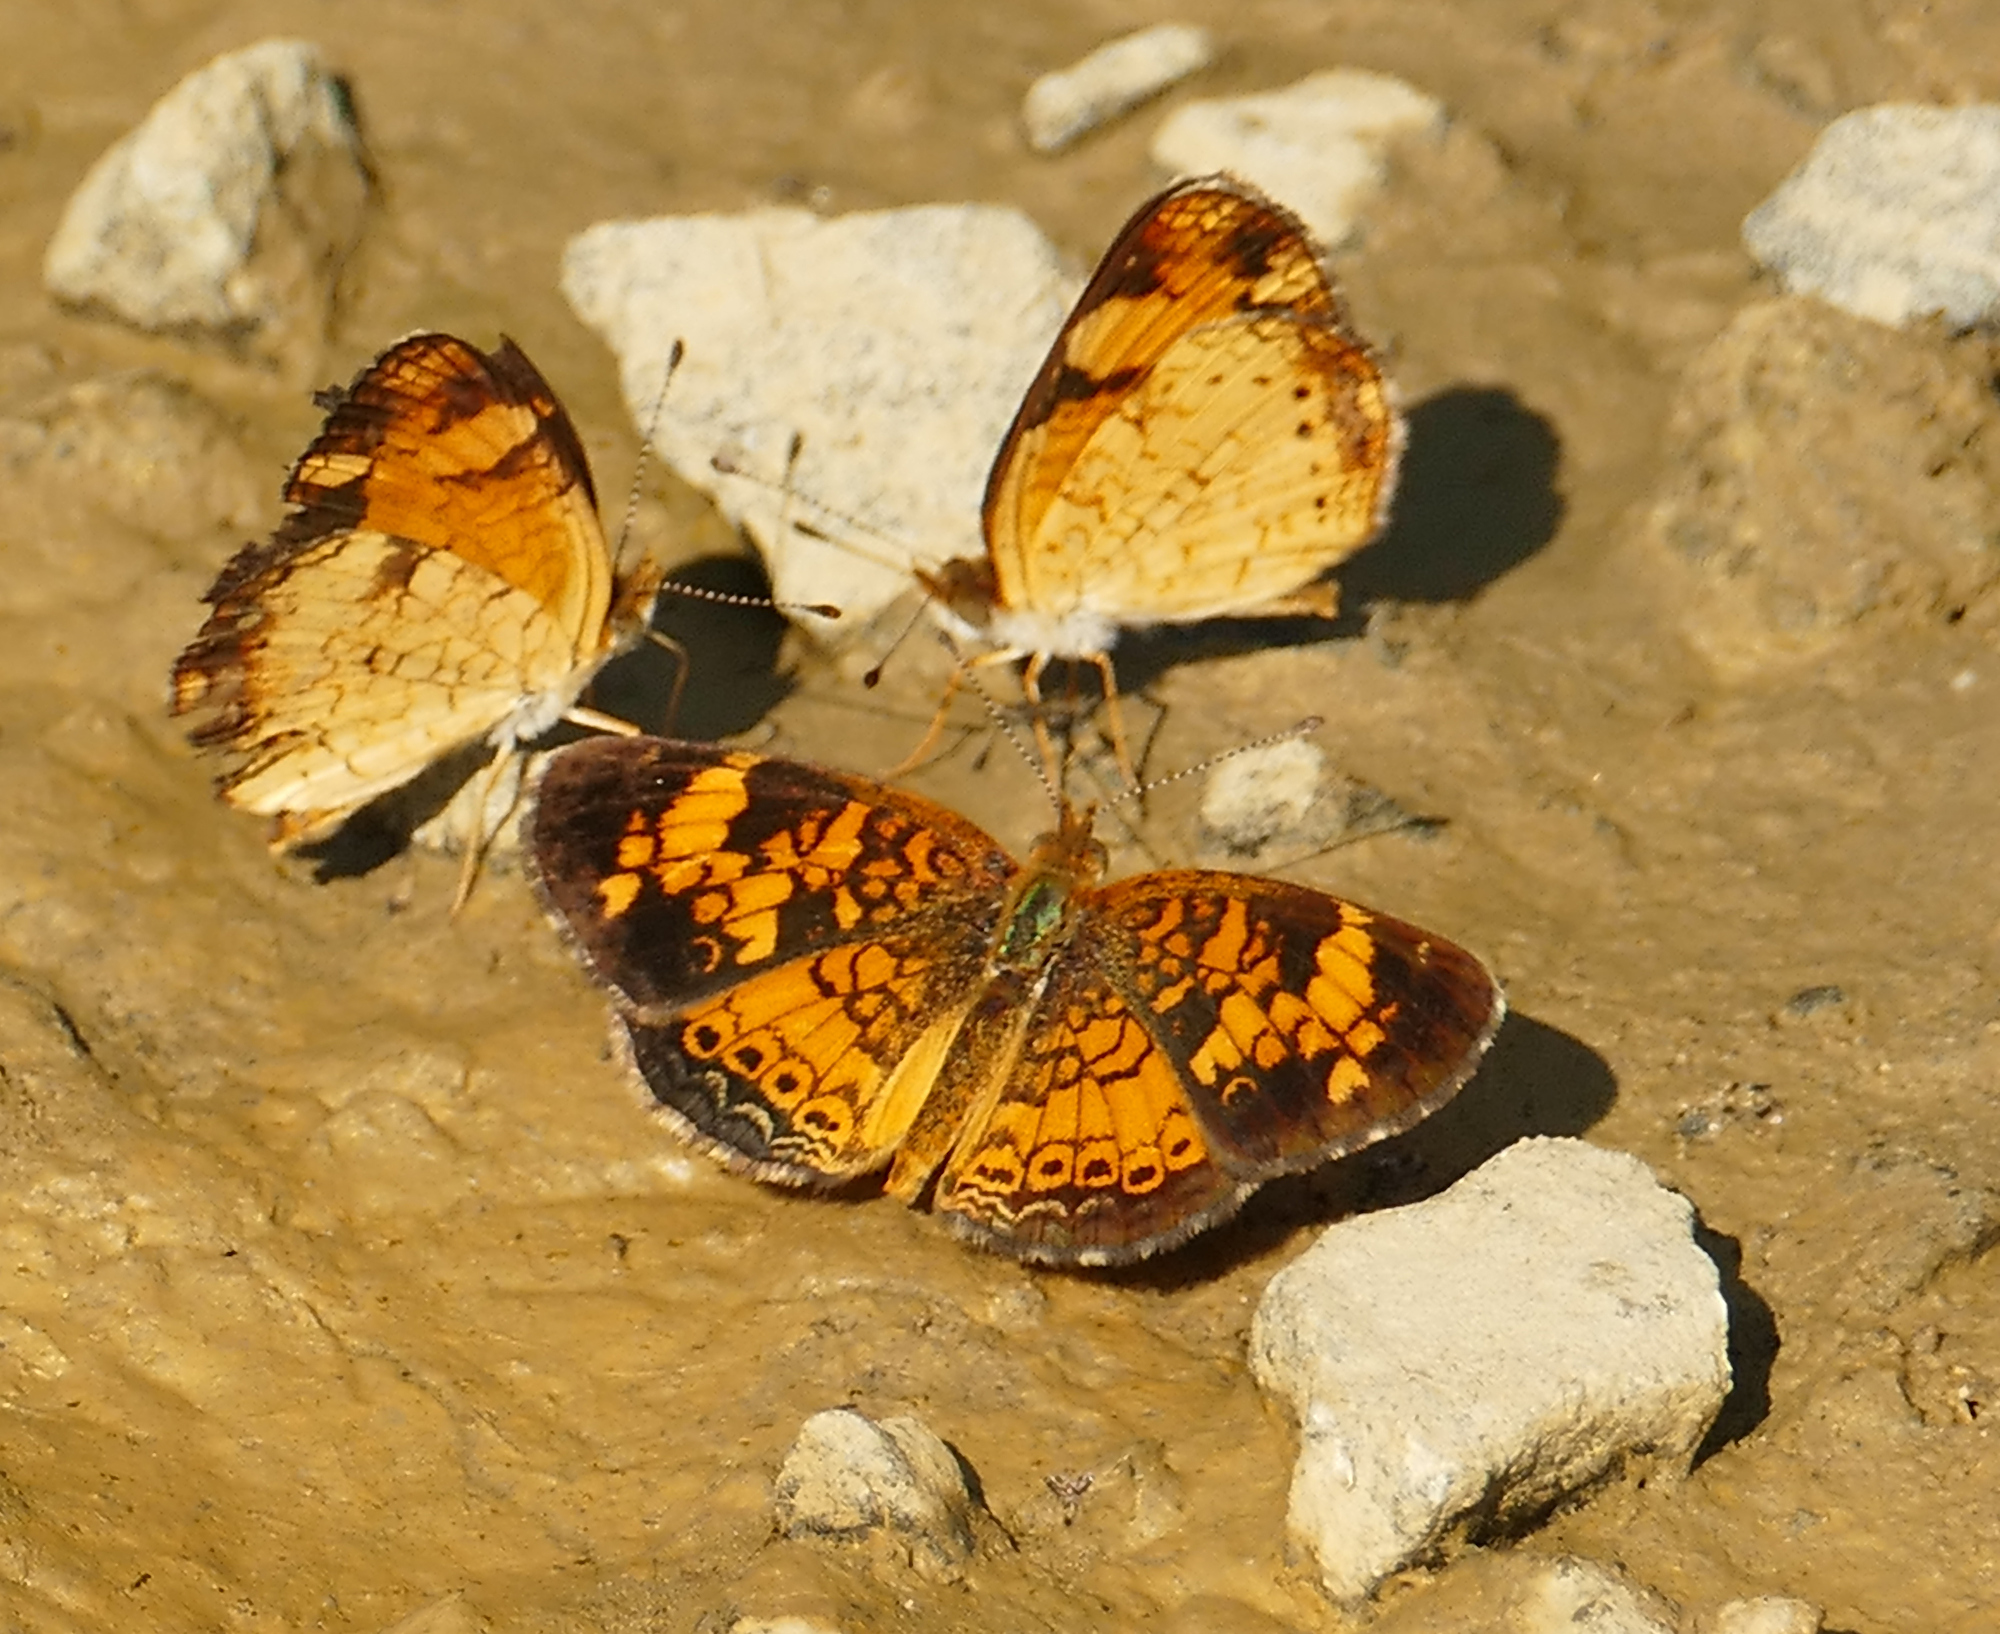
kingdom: Animalia
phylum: Arthropoda
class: Insecta
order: Lepidoptera
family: Nymphalidae
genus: Phyciodes
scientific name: Phyciodes tharos
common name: Pearl crescent
